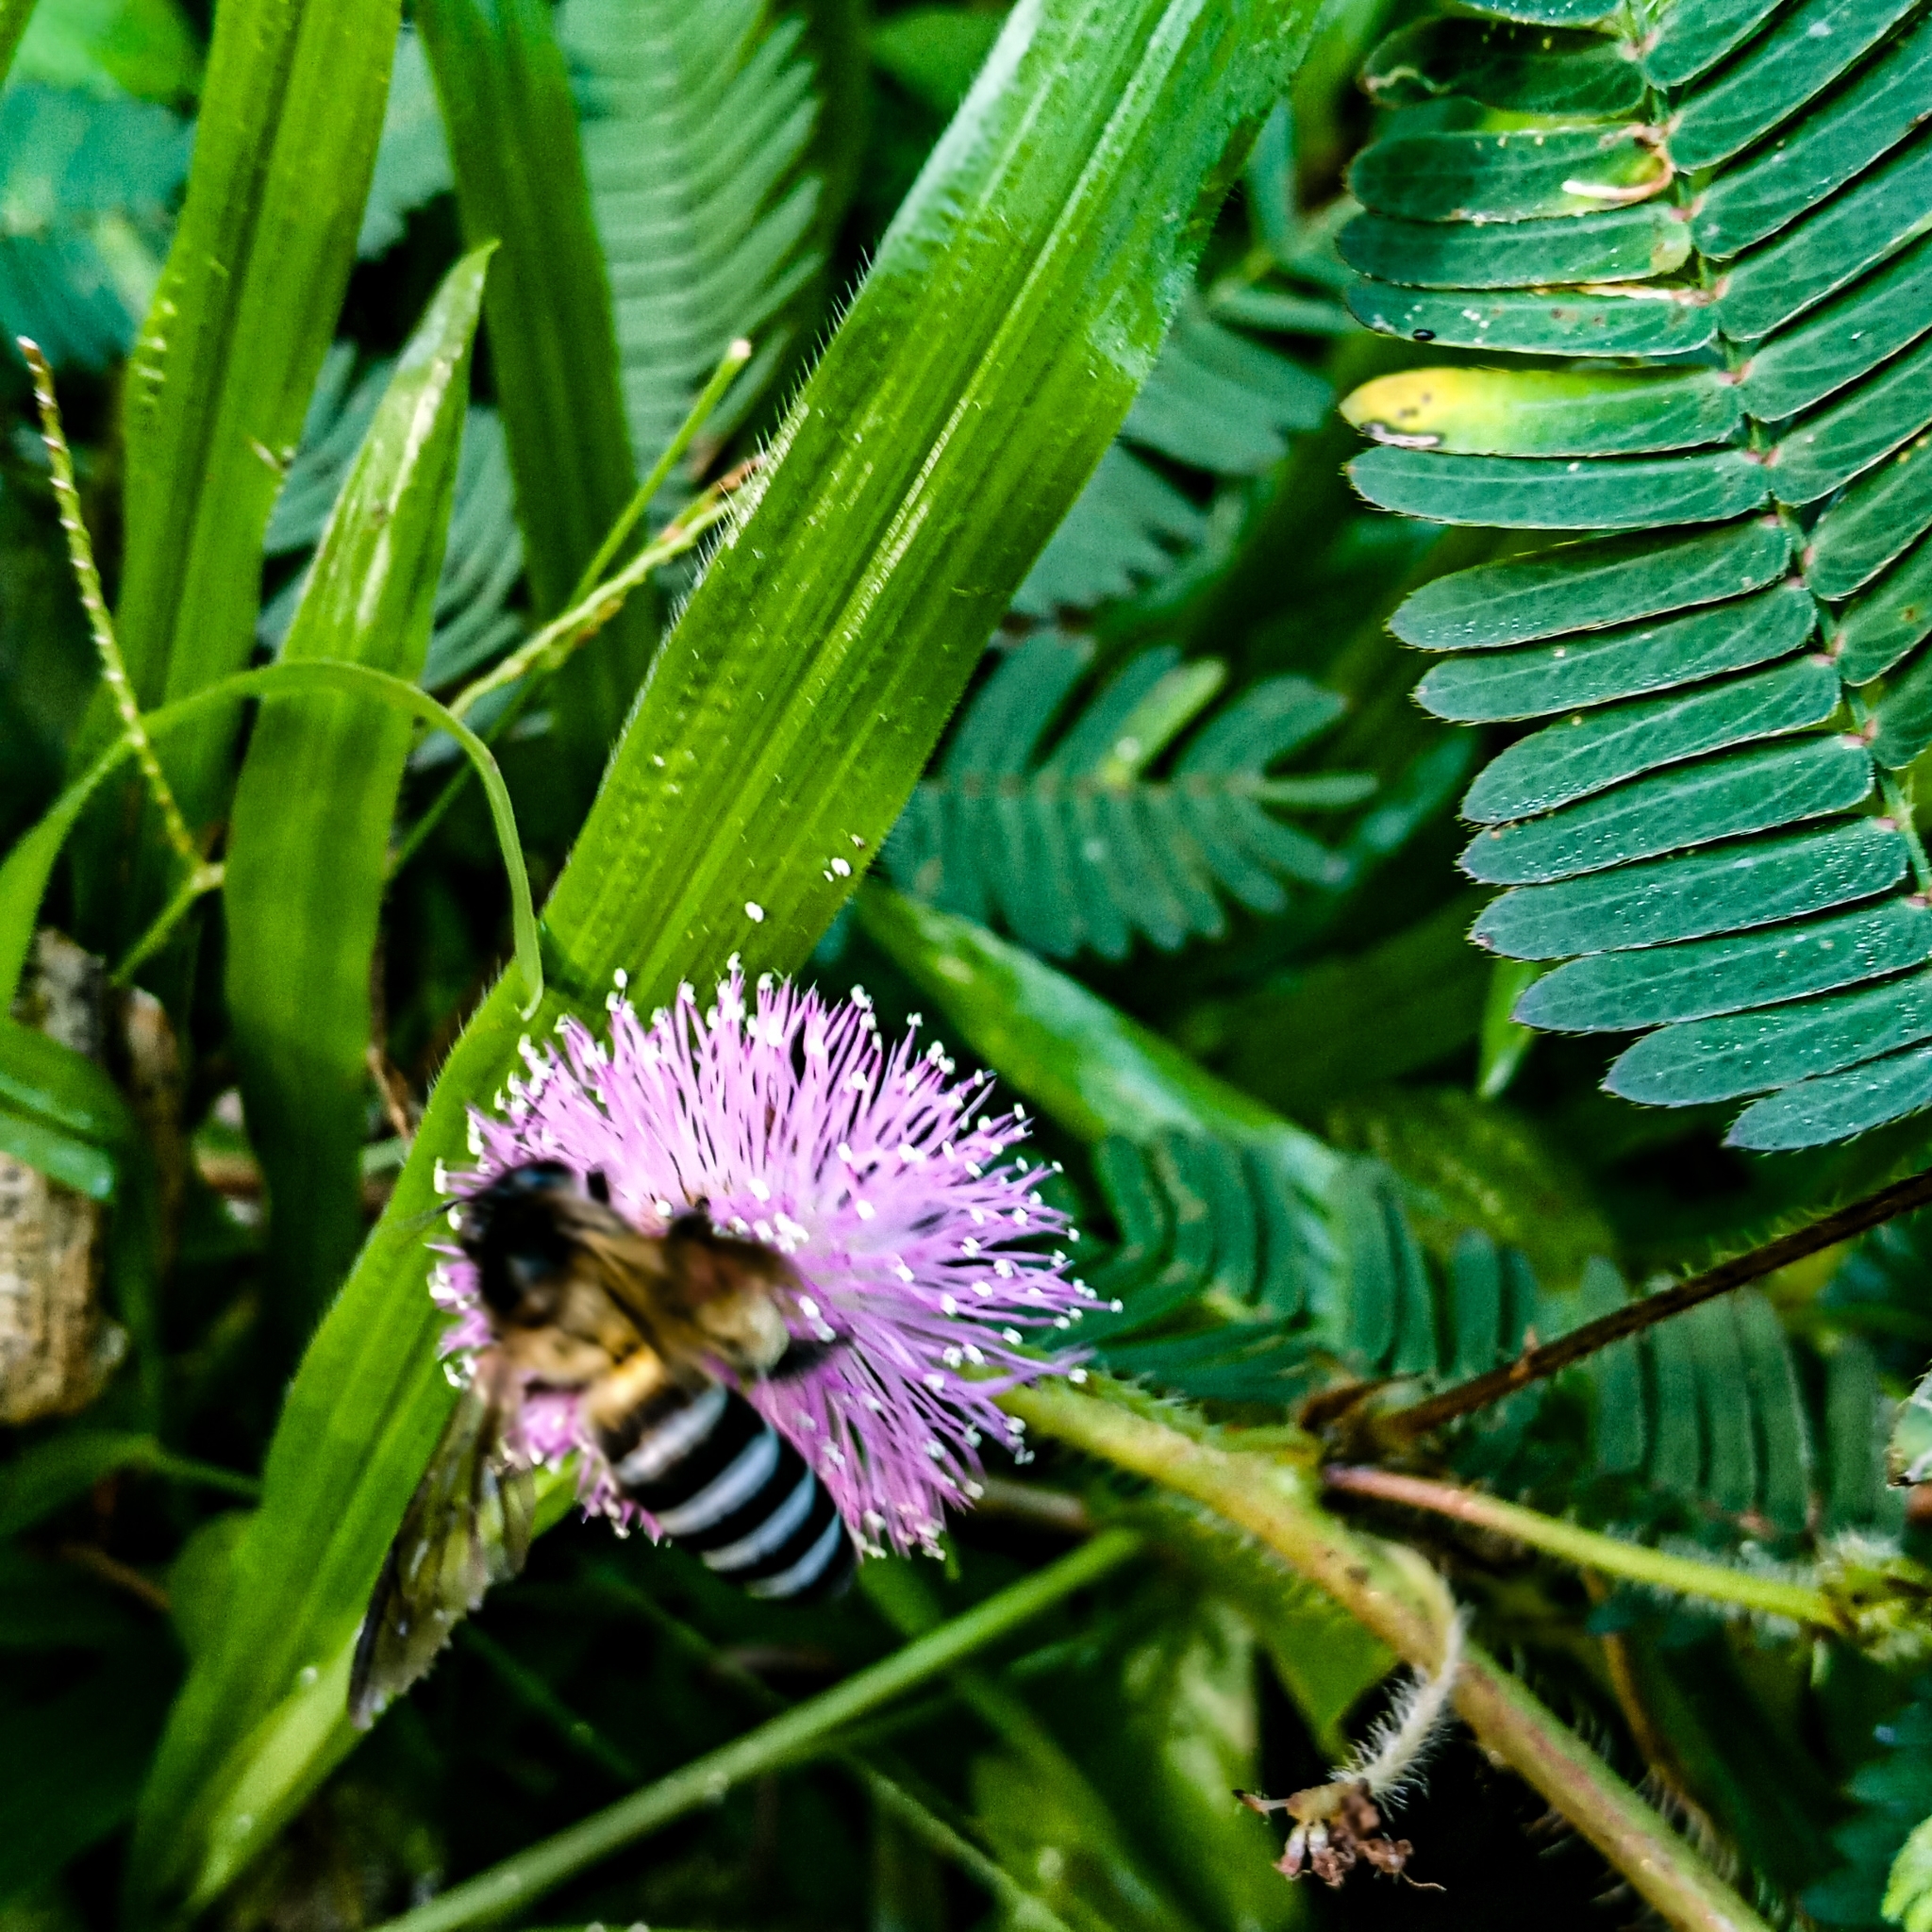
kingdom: Animalia
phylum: Arthropoda
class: Insecta
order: Hymenoptera
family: Apidae
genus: Apis
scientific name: Apis dorsata
